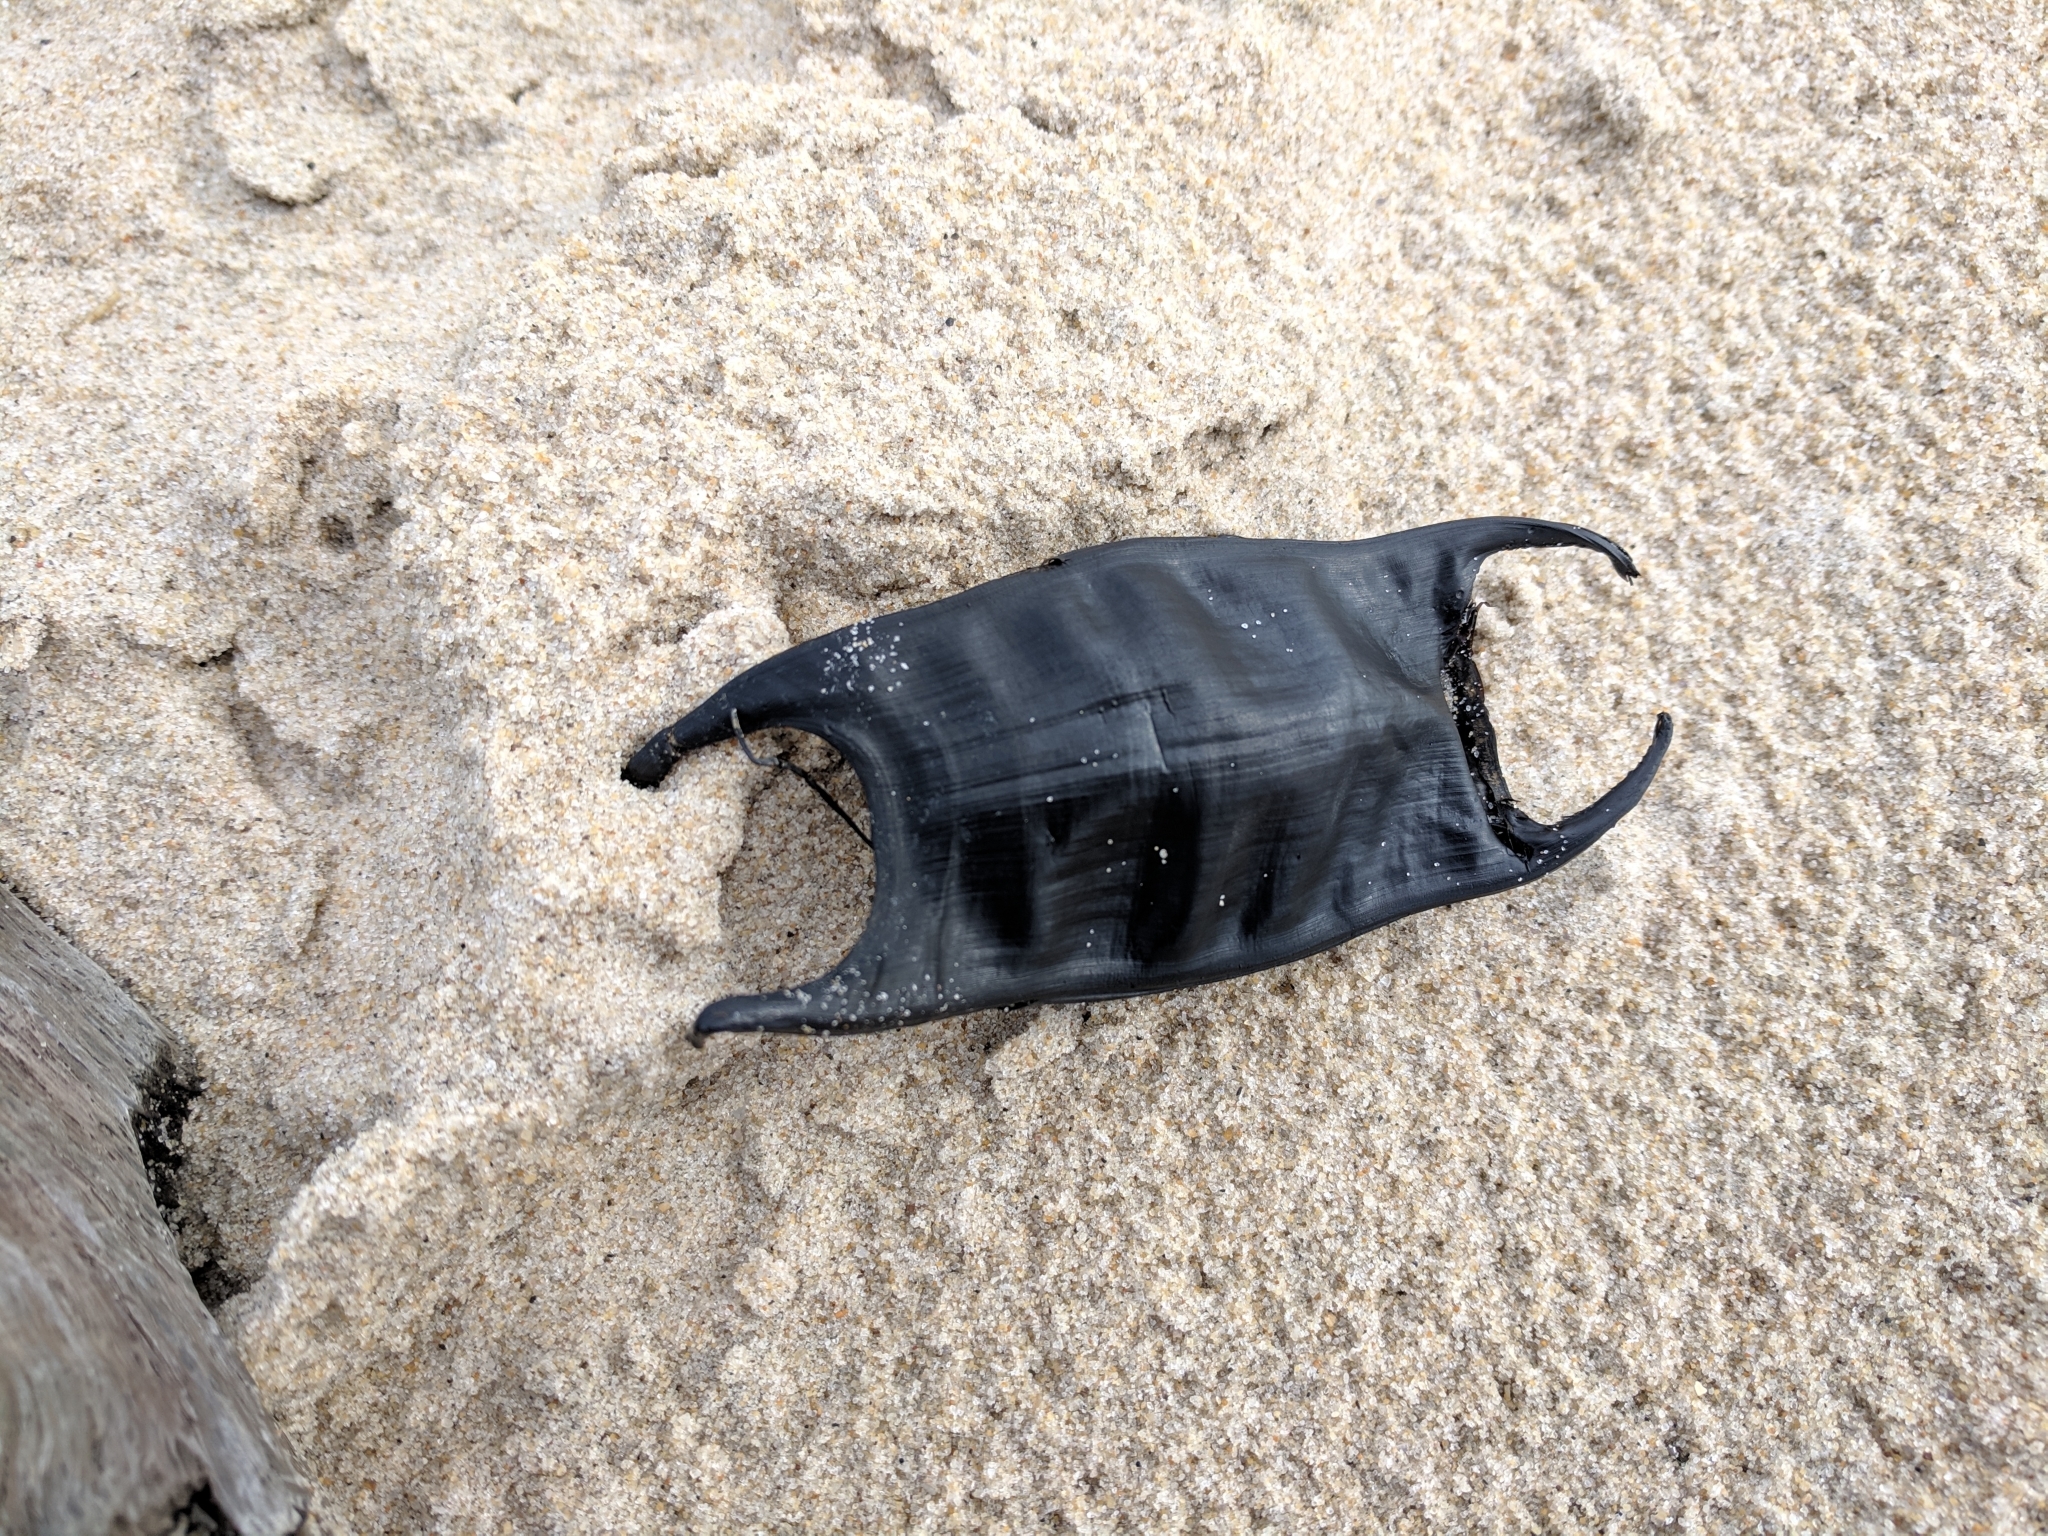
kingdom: Animalia
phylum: Chordata
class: Elasmobranchii
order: Rajiformes
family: Rajidae
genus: Raja
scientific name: Raja eglanteria
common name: Clearnose skate
